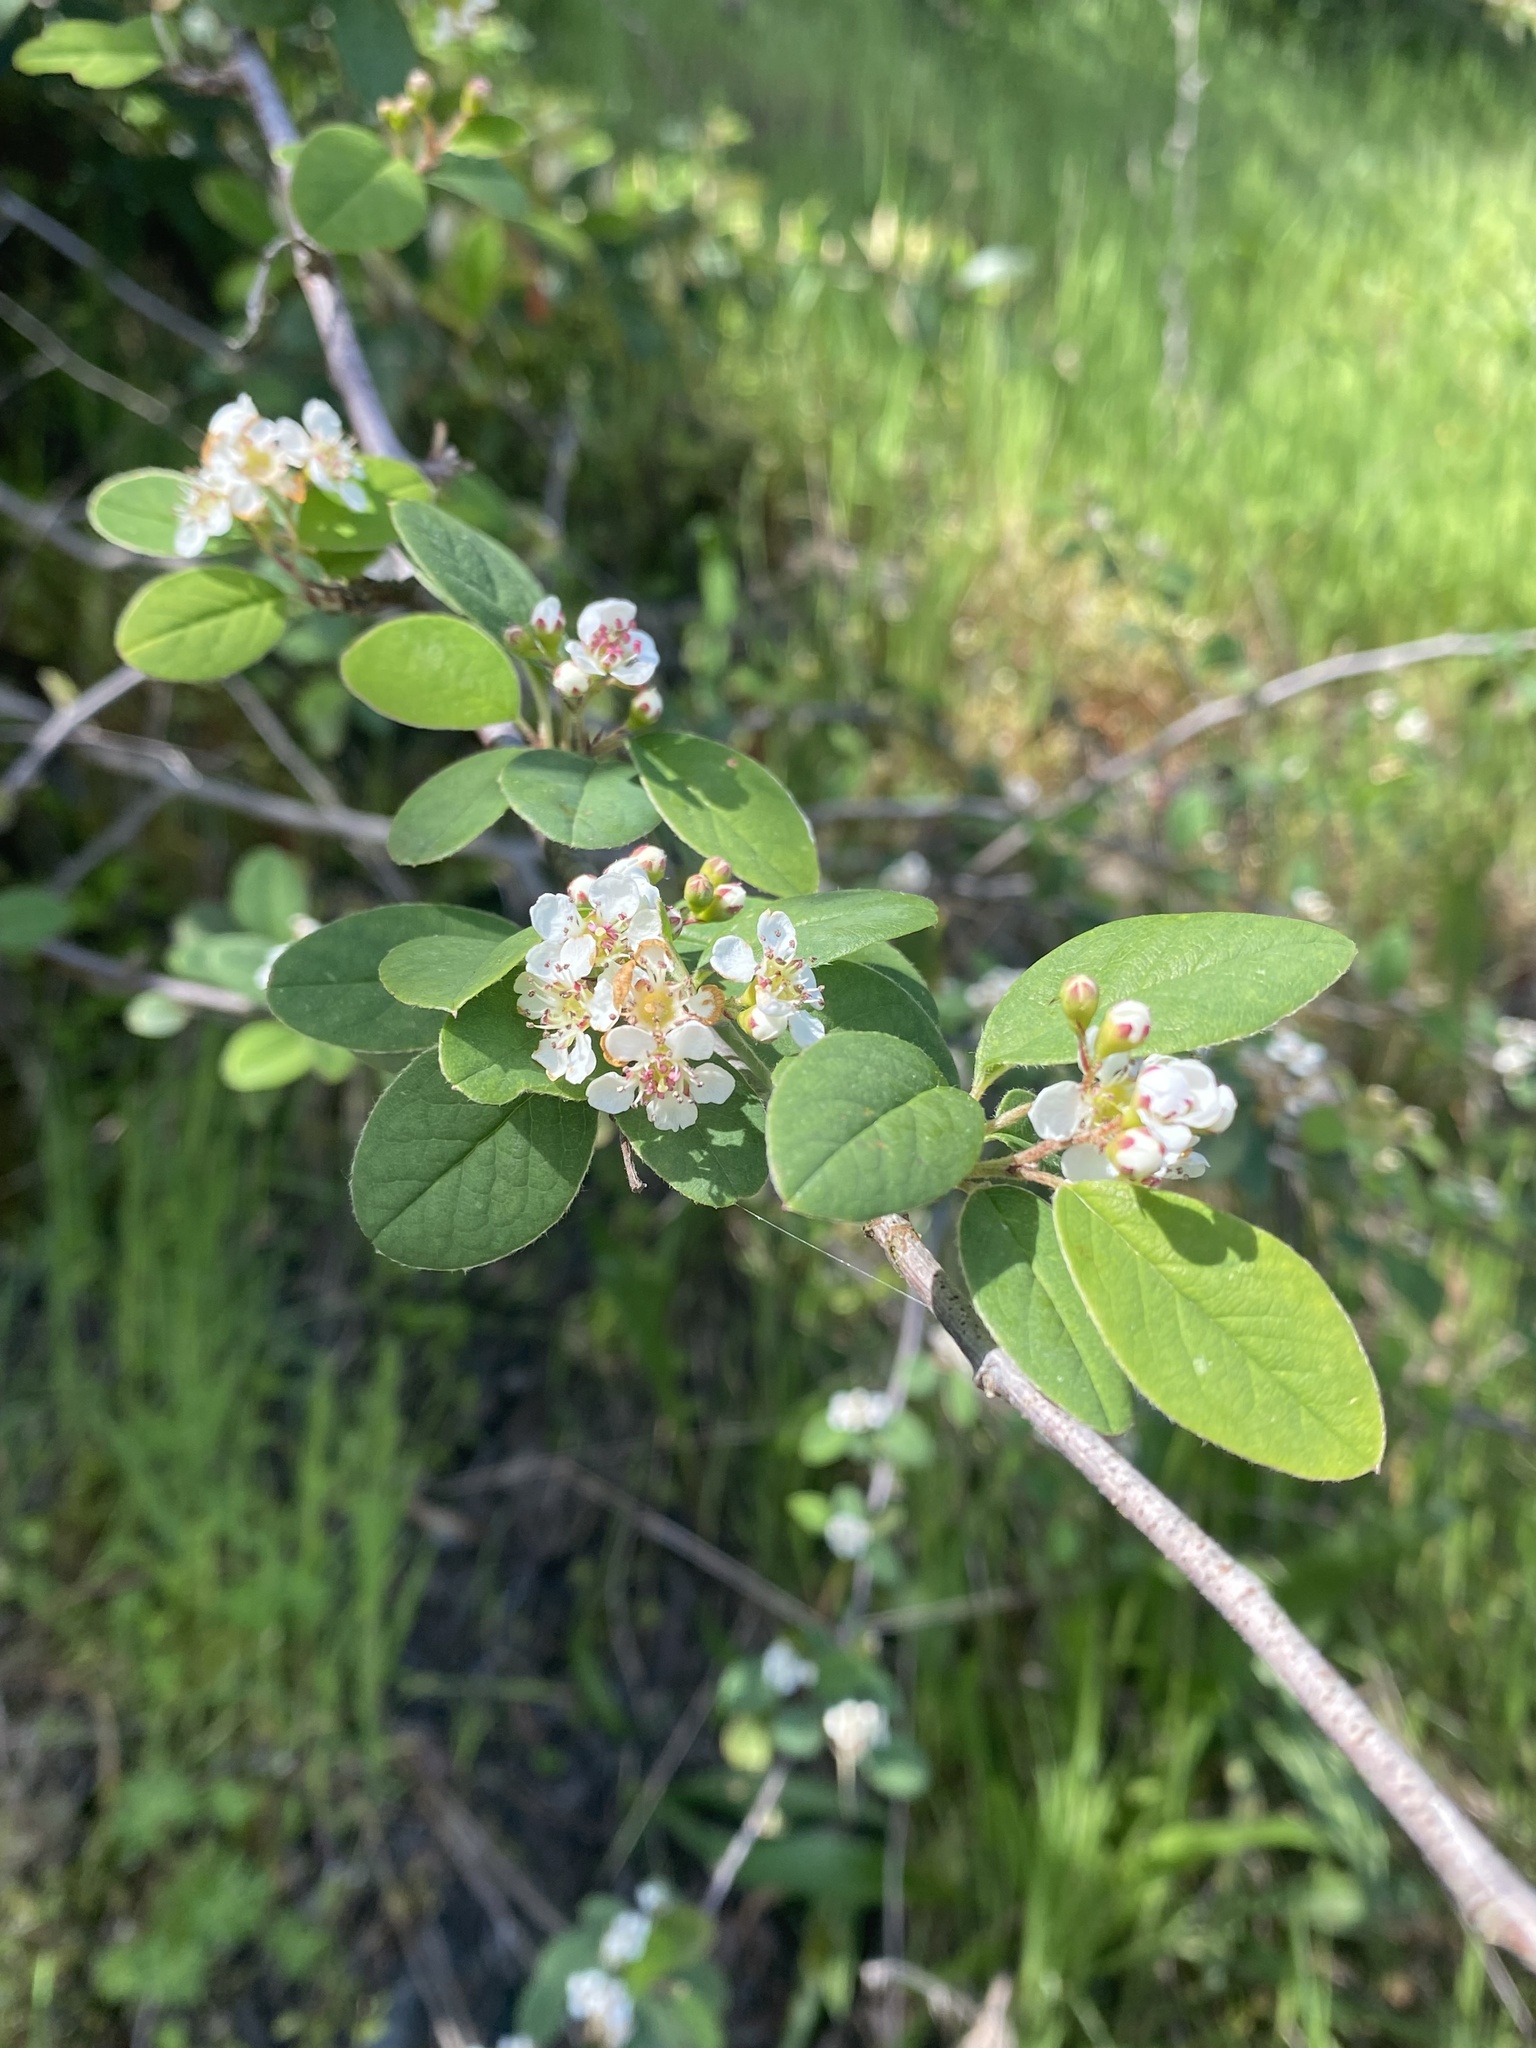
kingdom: Plantae
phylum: Tracheophyta
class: Magnoliopsida
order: Rosales
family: Rosaceae
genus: Cotoneaster
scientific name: Cotoneaster pannosus
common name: Silverleaf cotoneaster
